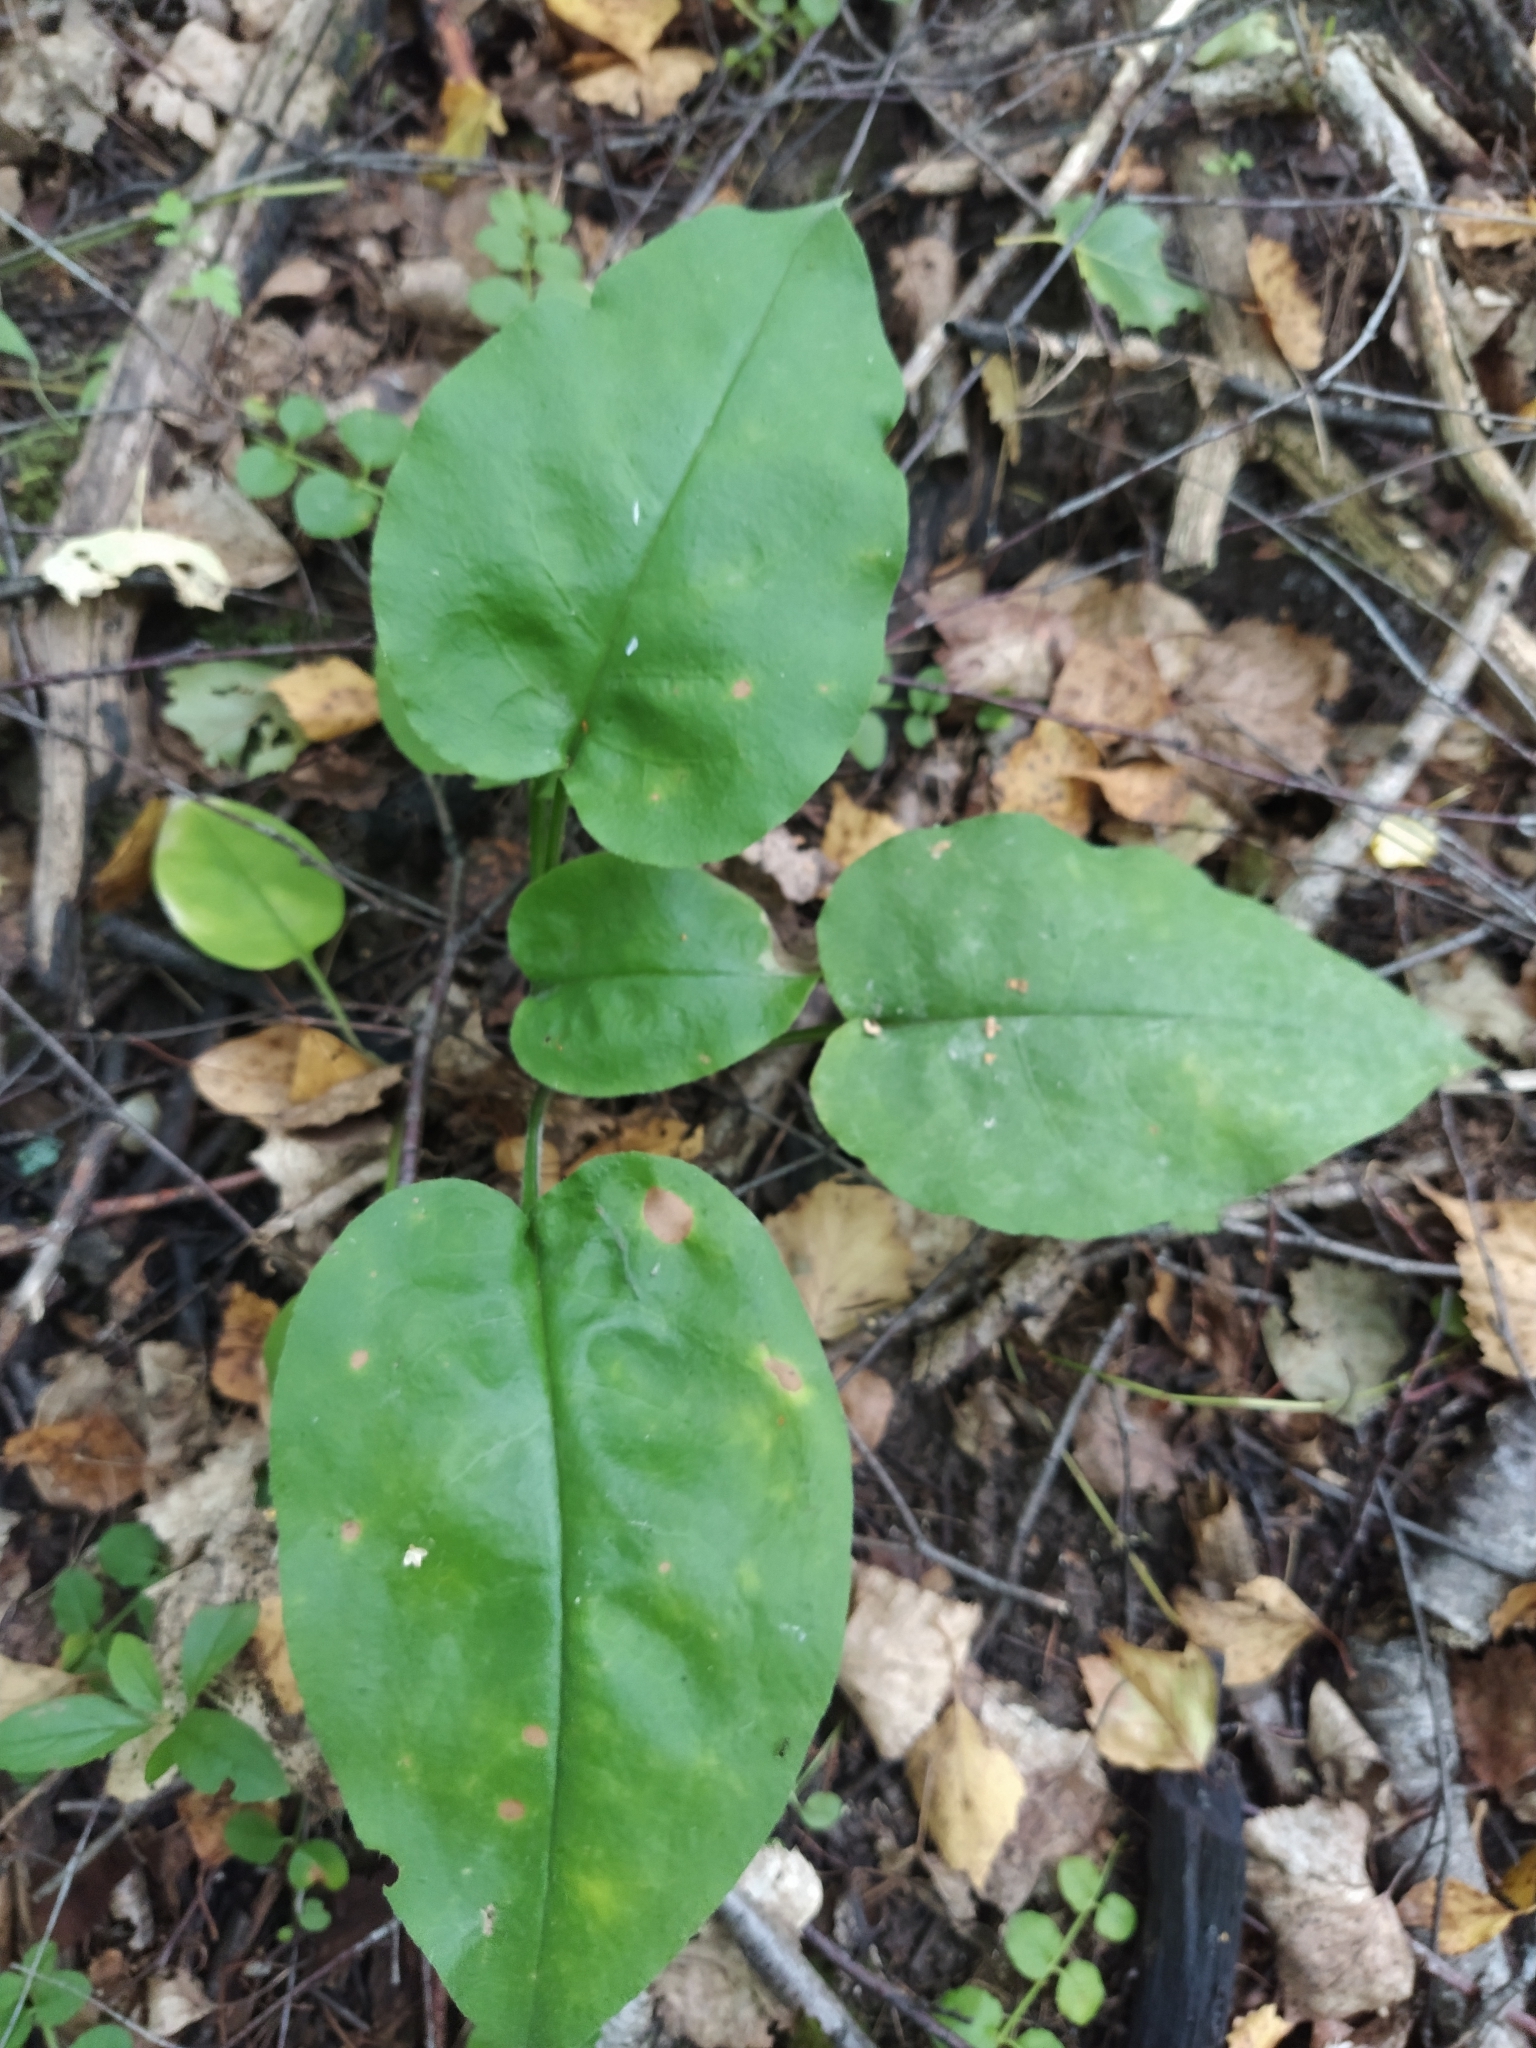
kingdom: Plantae
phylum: Tracheophyta
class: Magnoliopsida
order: Boraginales
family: Boraginaceae
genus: Pulmonaria
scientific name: Pulmonaria obscura
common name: Suffolk lungwort
